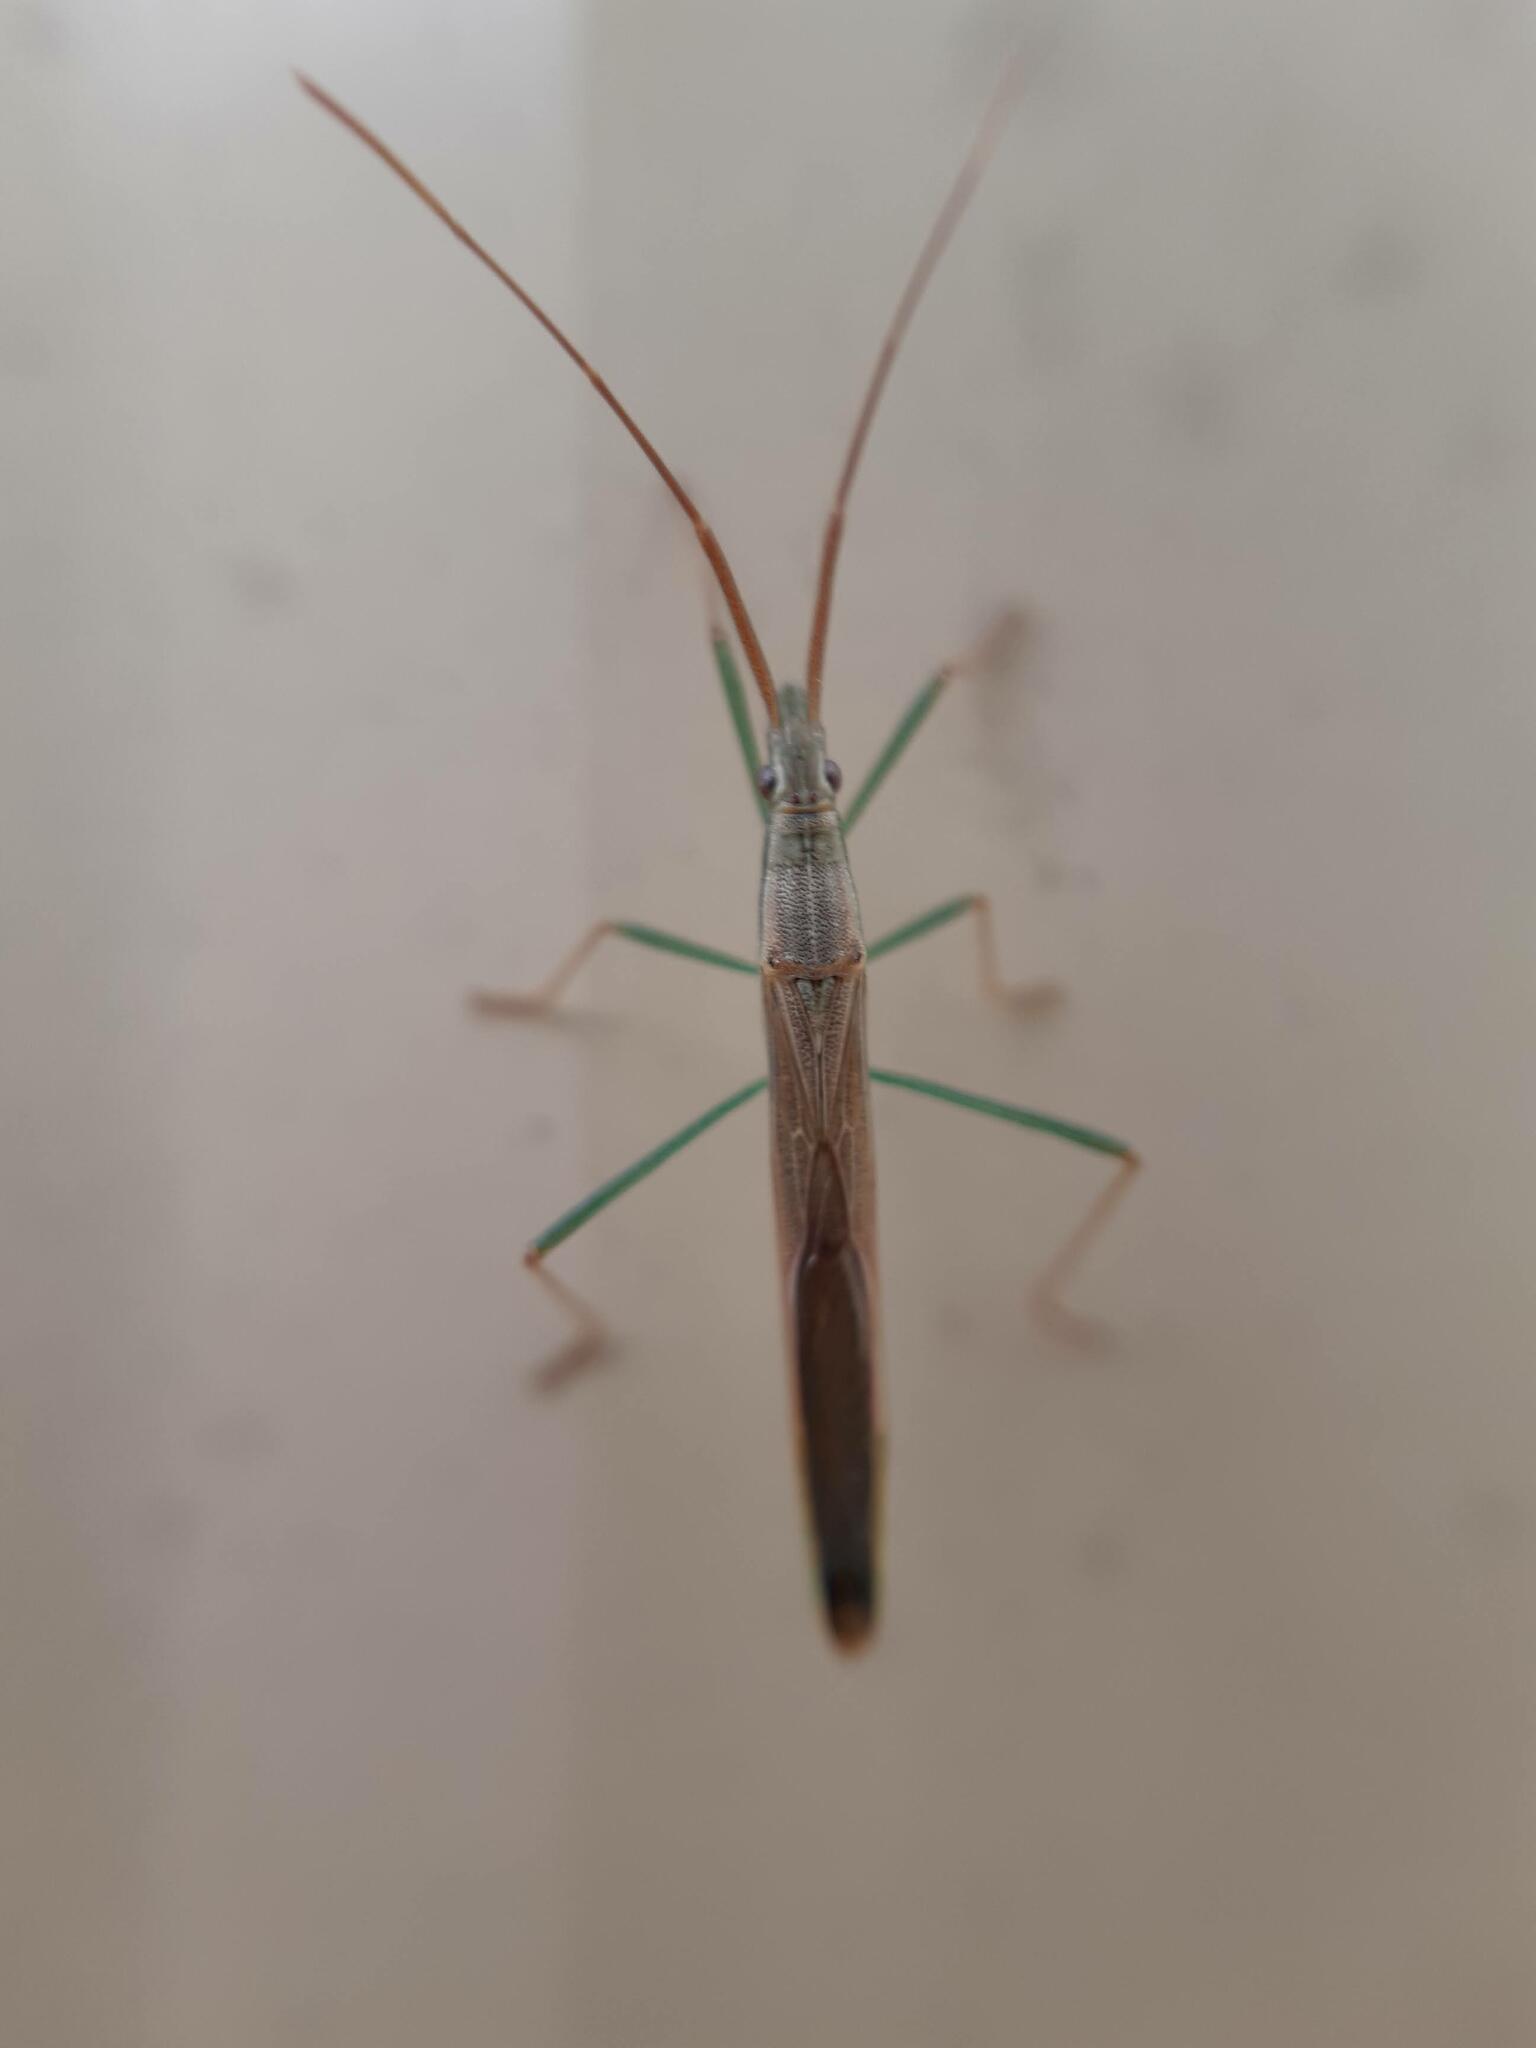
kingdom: Animalia
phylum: Arthropoda
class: Insecta
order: Hemiptera
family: Alydidae
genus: Mutusca
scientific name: Mutusca brevicornis
